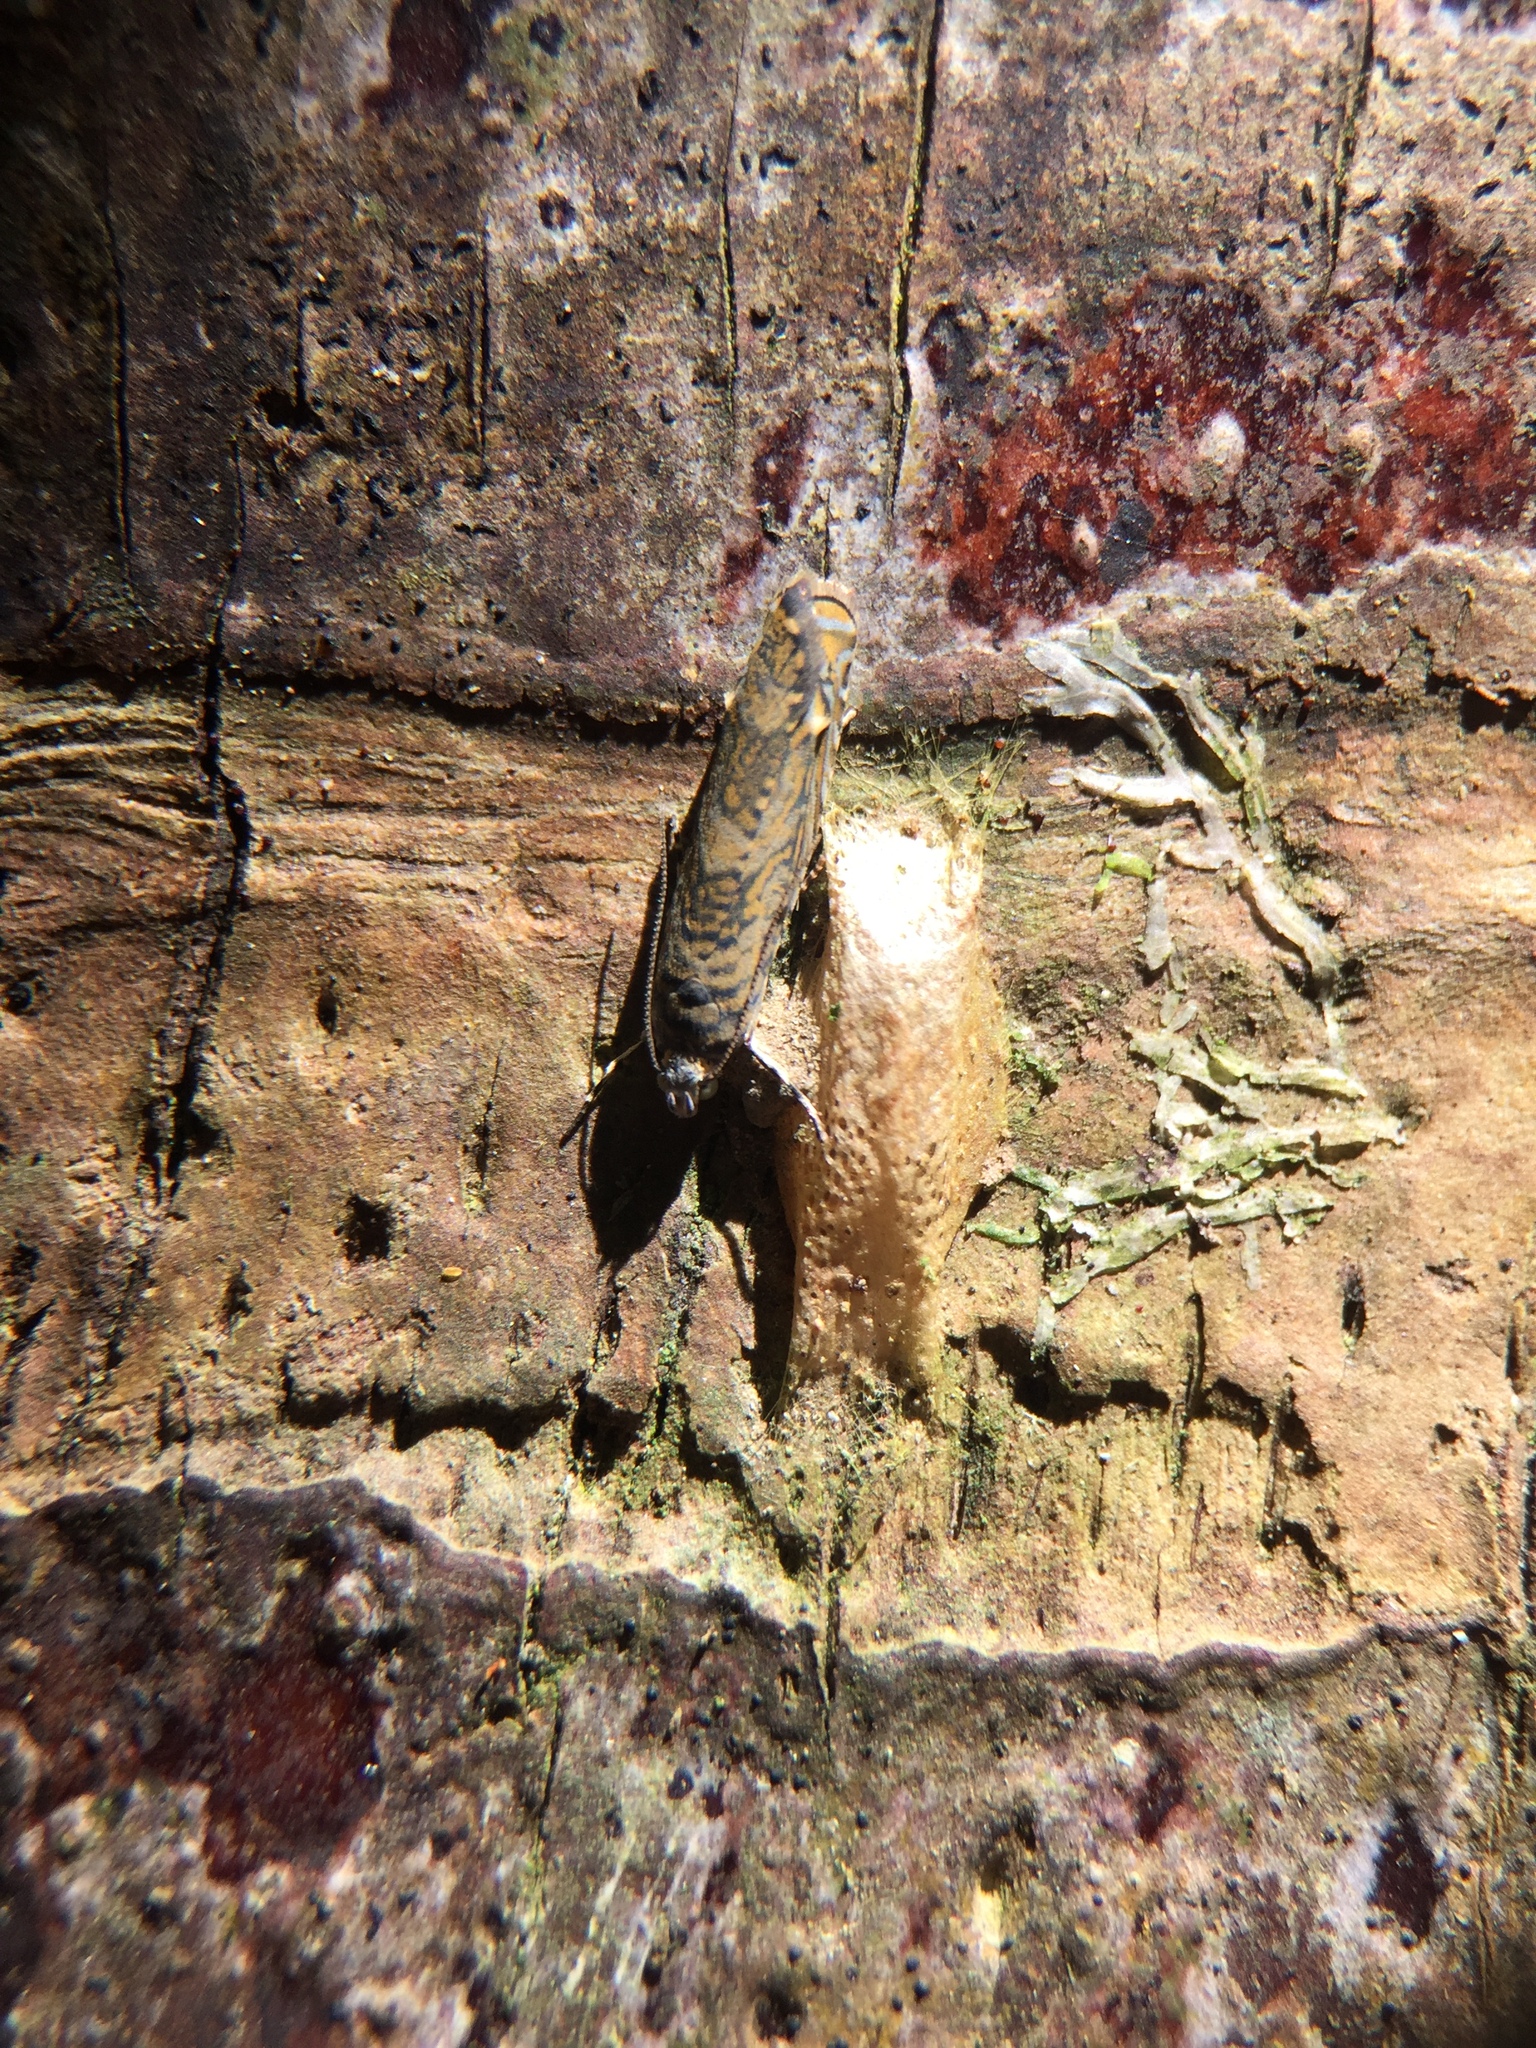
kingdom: Animalia
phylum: Arthropoda
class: Insecta
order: Lepidoptera
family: Plutellidae
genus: Doxophyrtis
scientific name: Doxophyrtis hydrocosma
